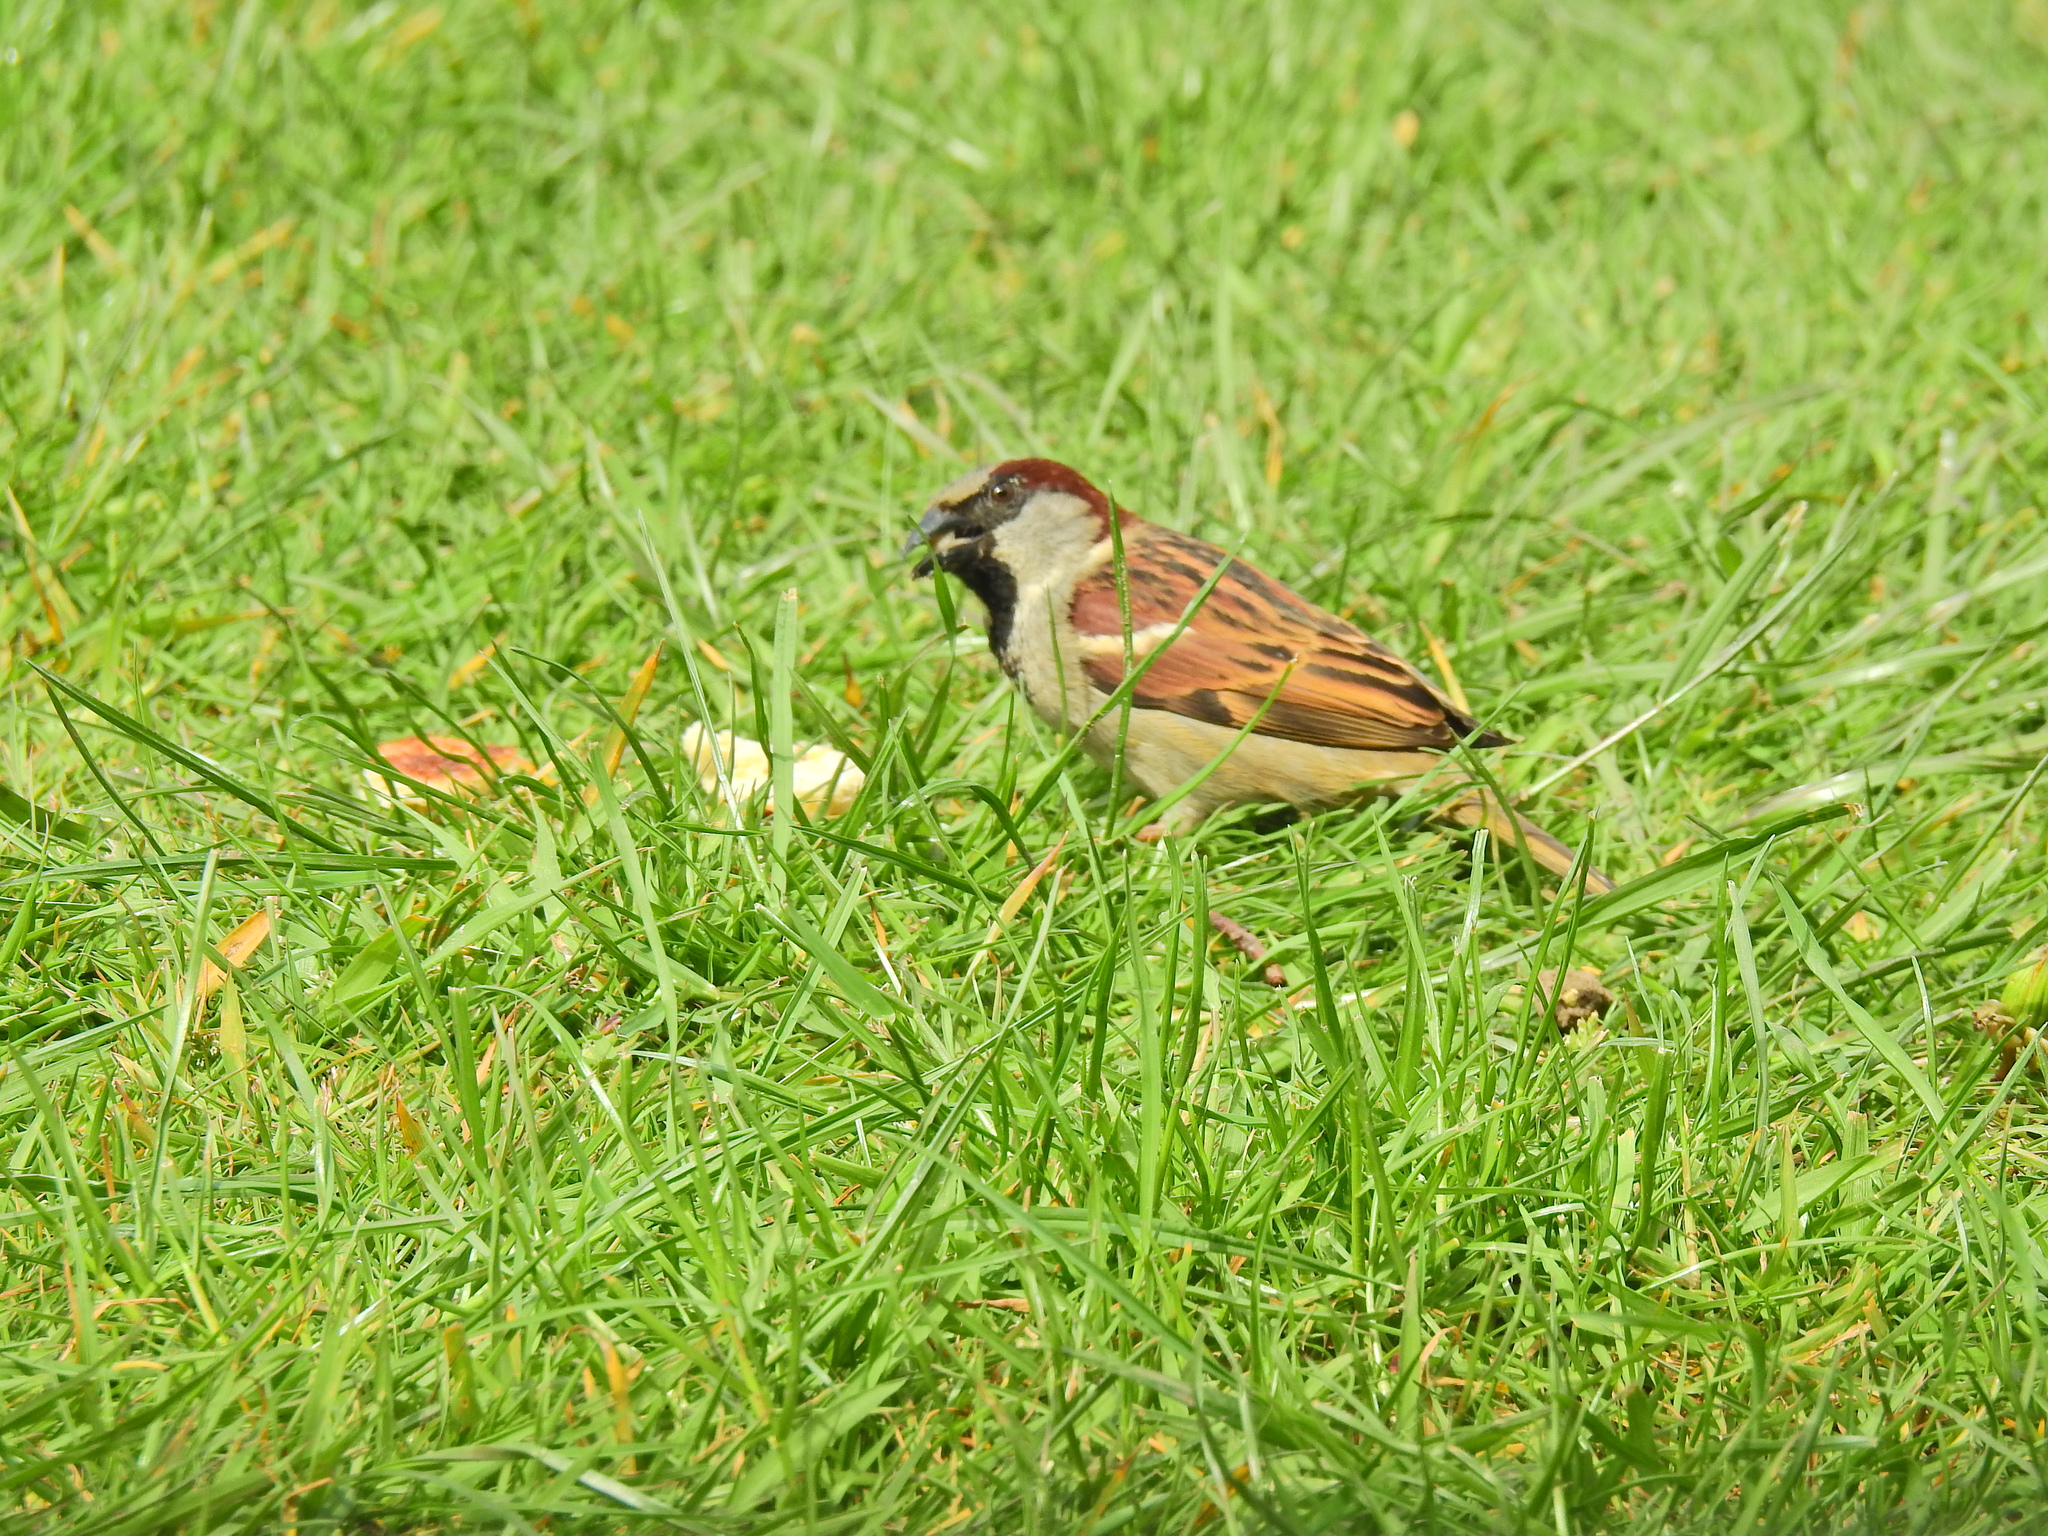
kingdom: Animalia
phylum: Chordata
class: Aves
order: Passeriformes
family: Passeridae
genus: Passer
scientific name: Passer domesticus
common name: House sparrow
